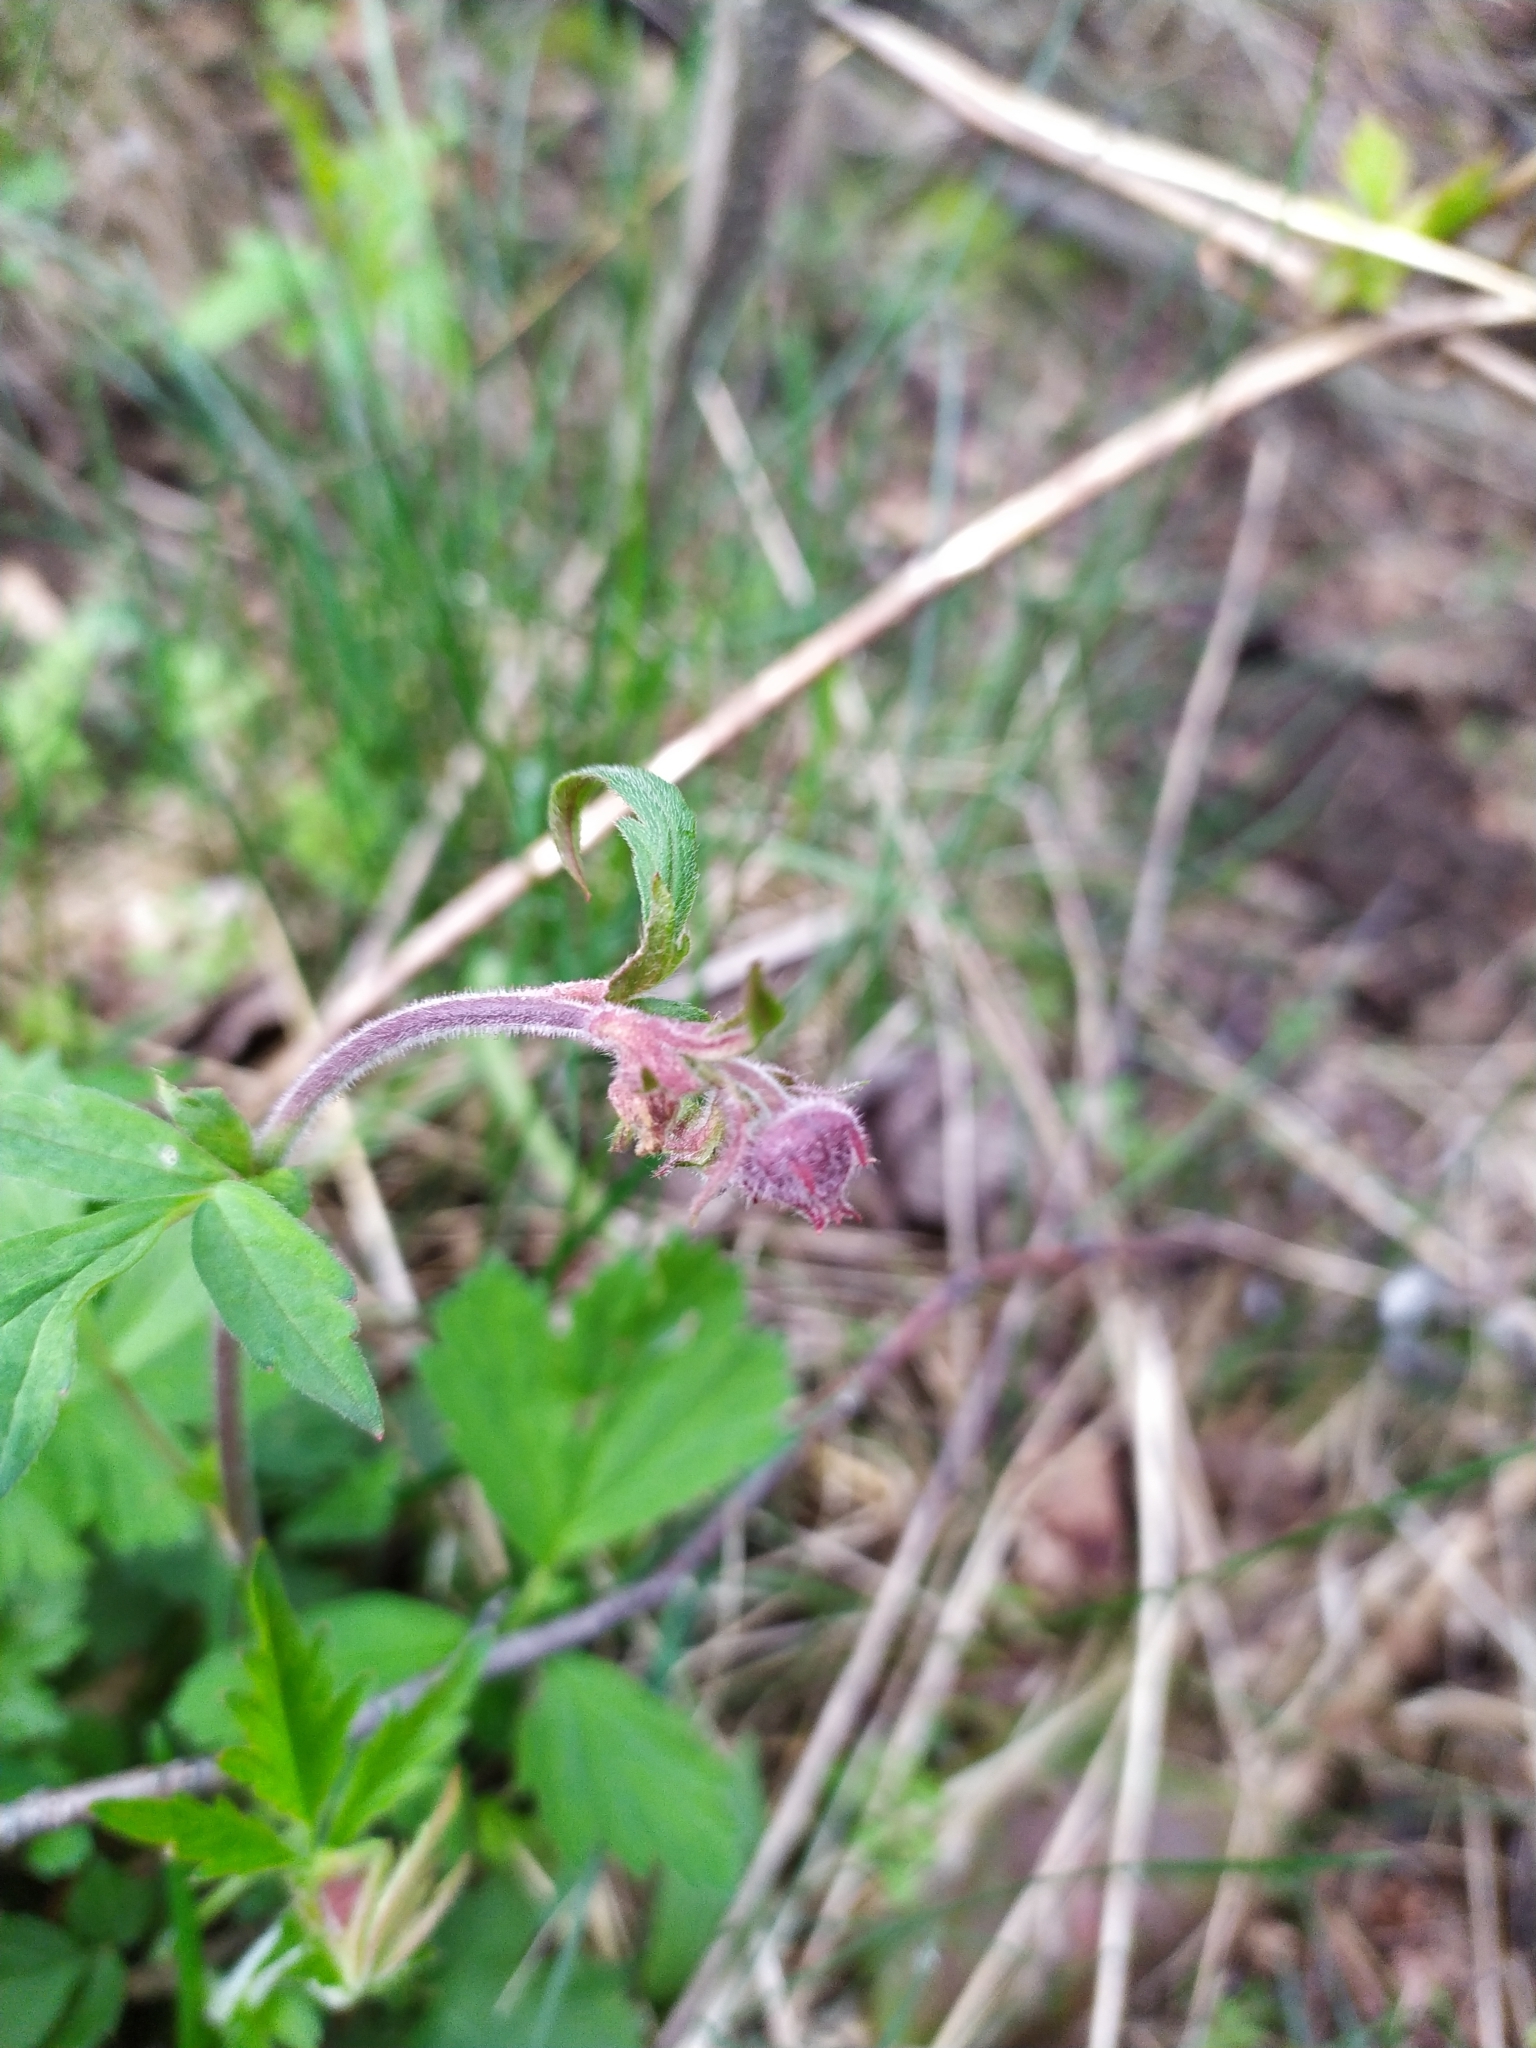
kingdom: Plantae
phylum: Tracheophyta
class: Magnoliopsida
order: Rosales
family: Rosaceae
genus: Geum
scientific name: Geum rivale
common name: Water avens
